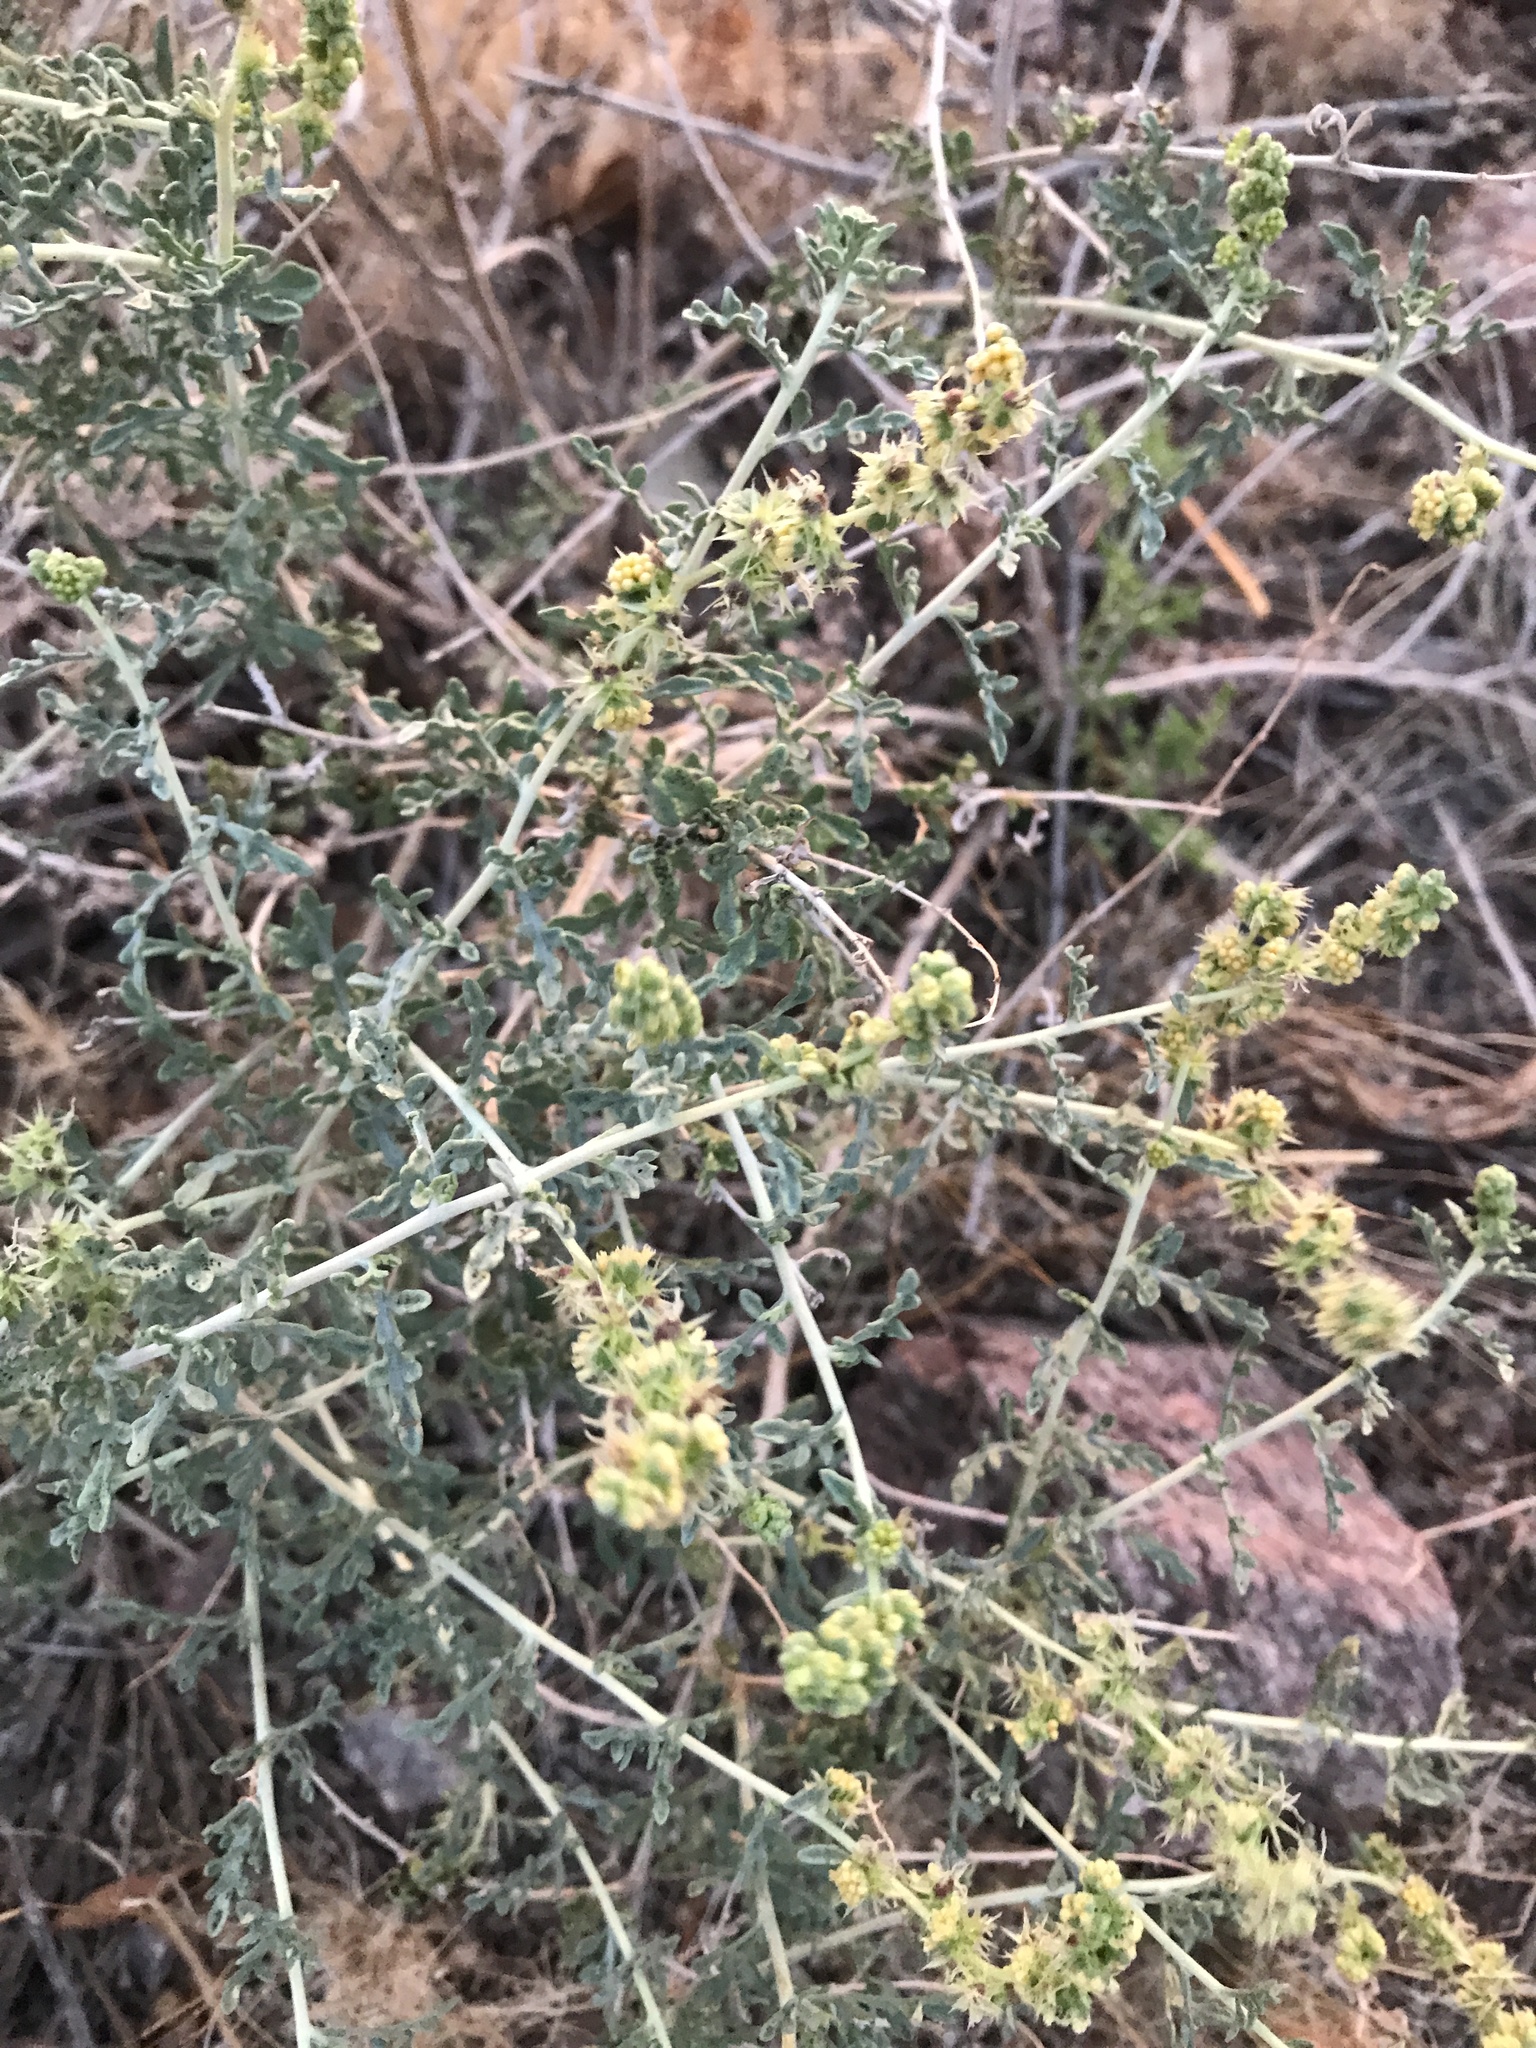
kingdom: Plantae
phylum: Tracheophyta
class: Magnoliopsida
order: Asterales
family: Asteraceae
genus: Ambrosia
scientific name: Ambrosia dumosa
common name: Bur-sage
